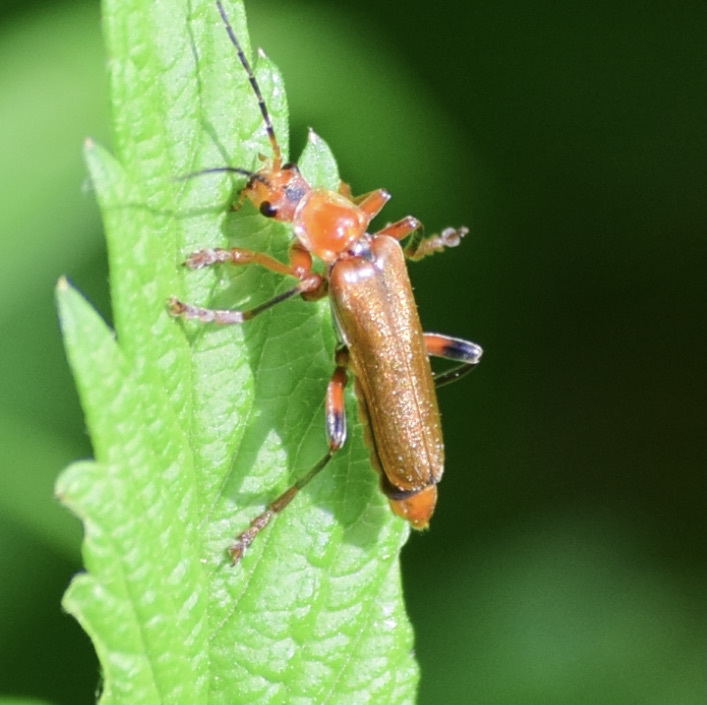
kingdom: Animalia
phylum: Arthropoda
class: Insecta
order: Coleoptera
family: Cantharidae
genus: Cantharis
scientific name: Cantharis livida
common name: Livid soldier beetle
